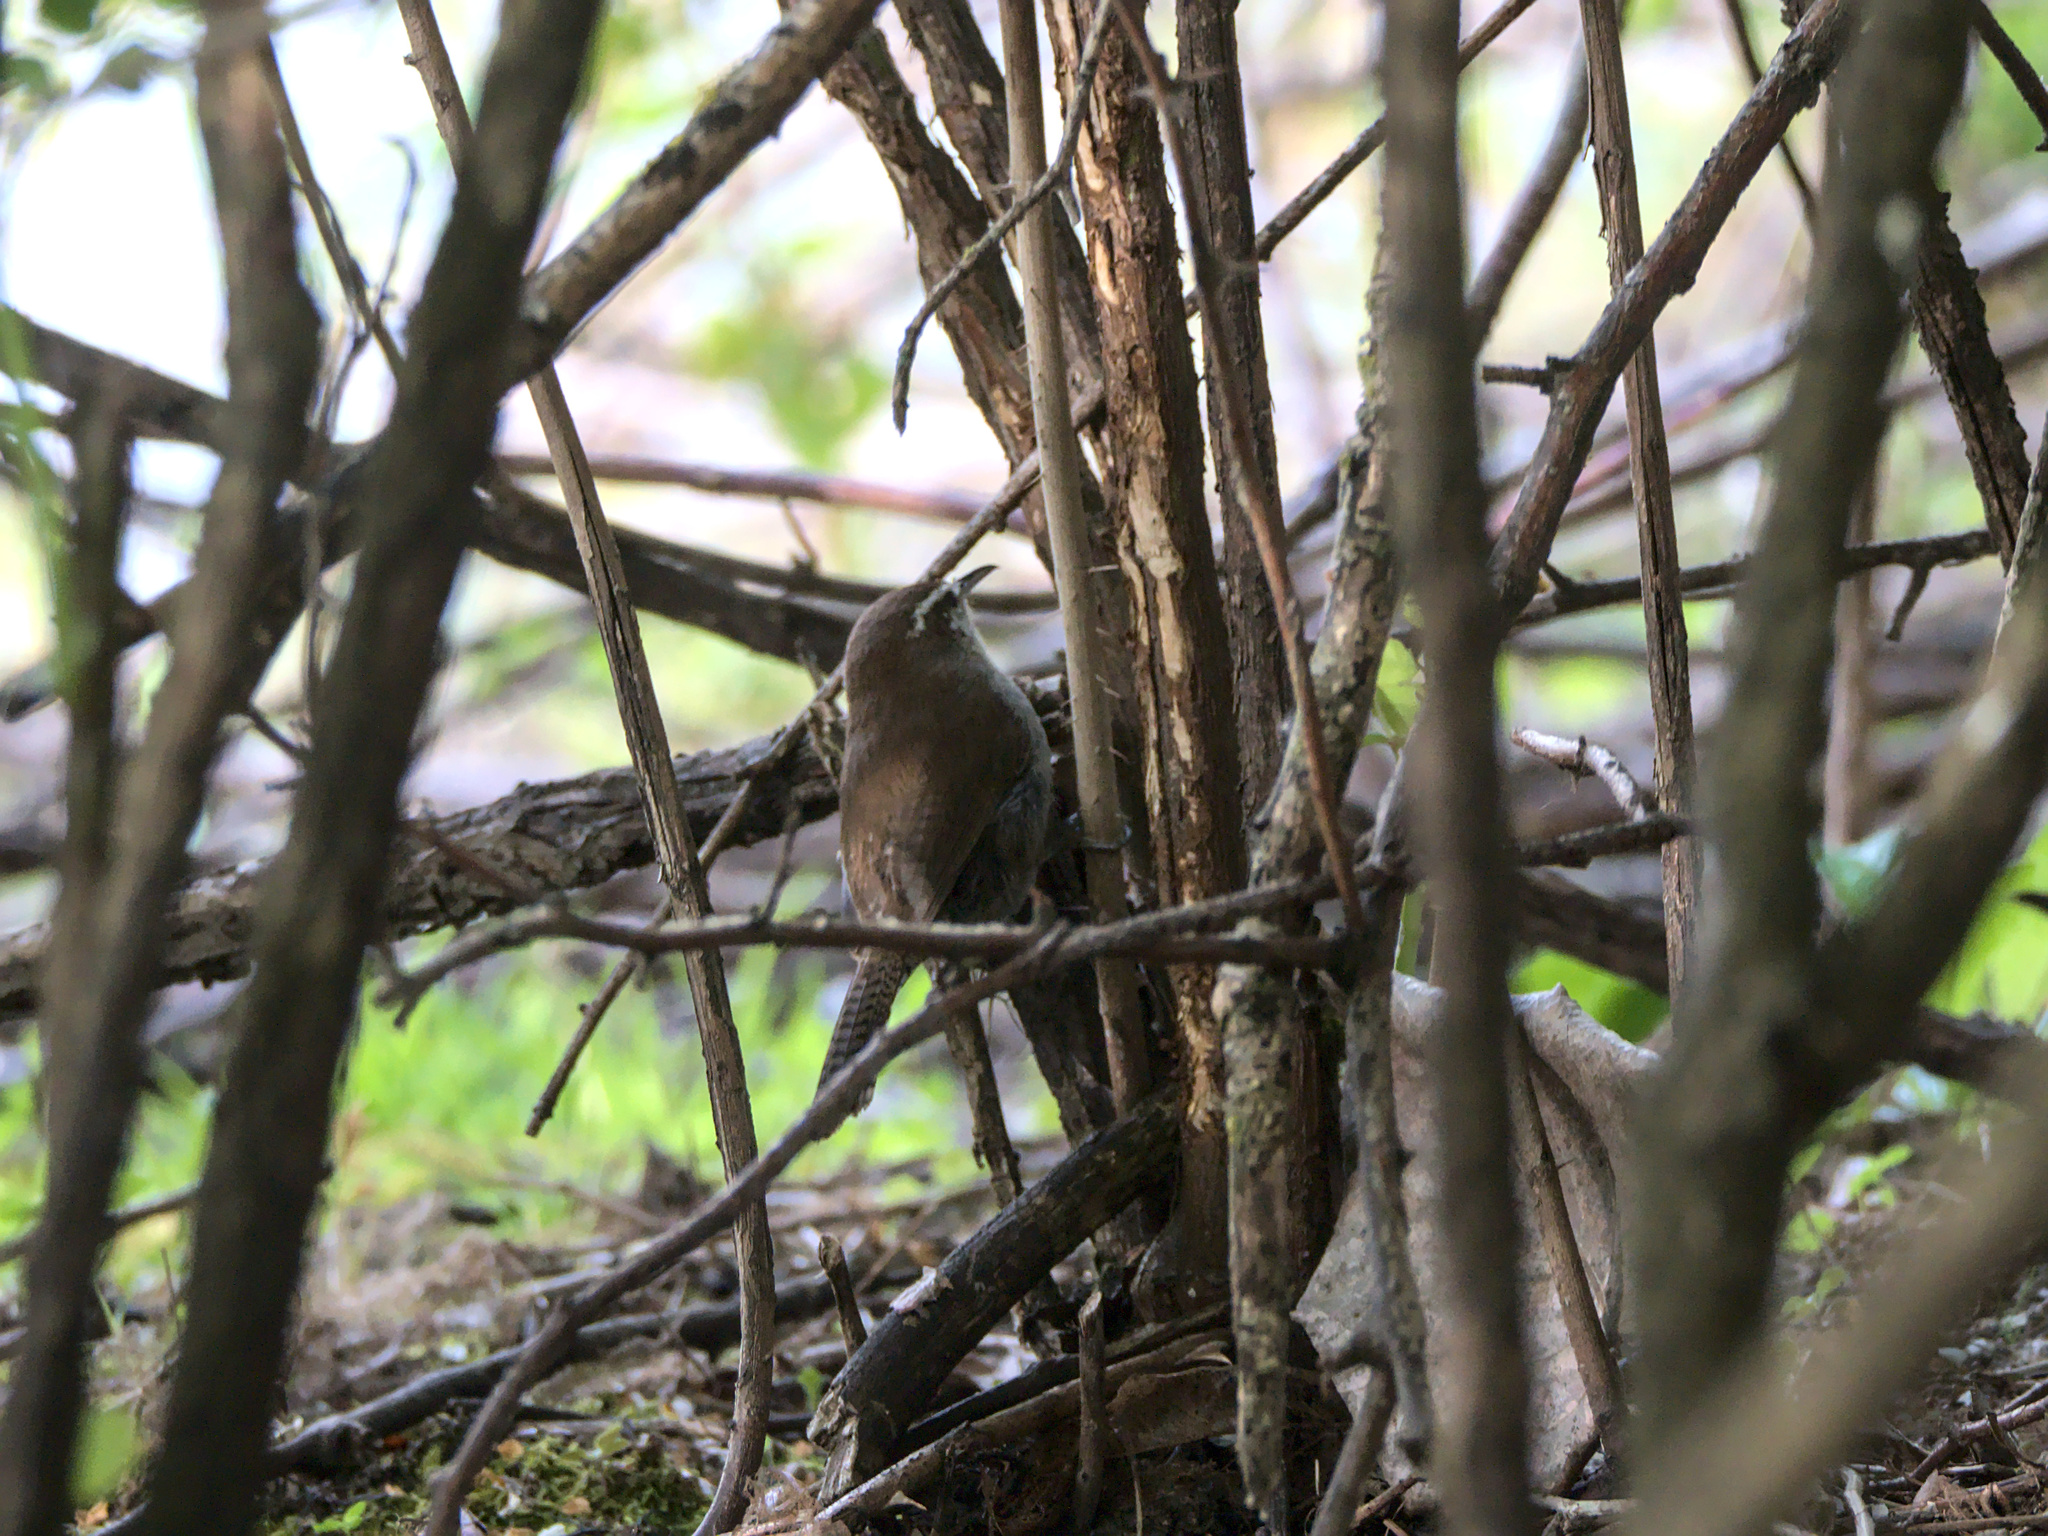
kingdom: Animalia
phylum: Chordata
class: Aves
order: Passeriformes
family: Troglodytidae
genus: Thryomanes
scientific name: Thryomanes bewickii
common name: Bewick's wren
